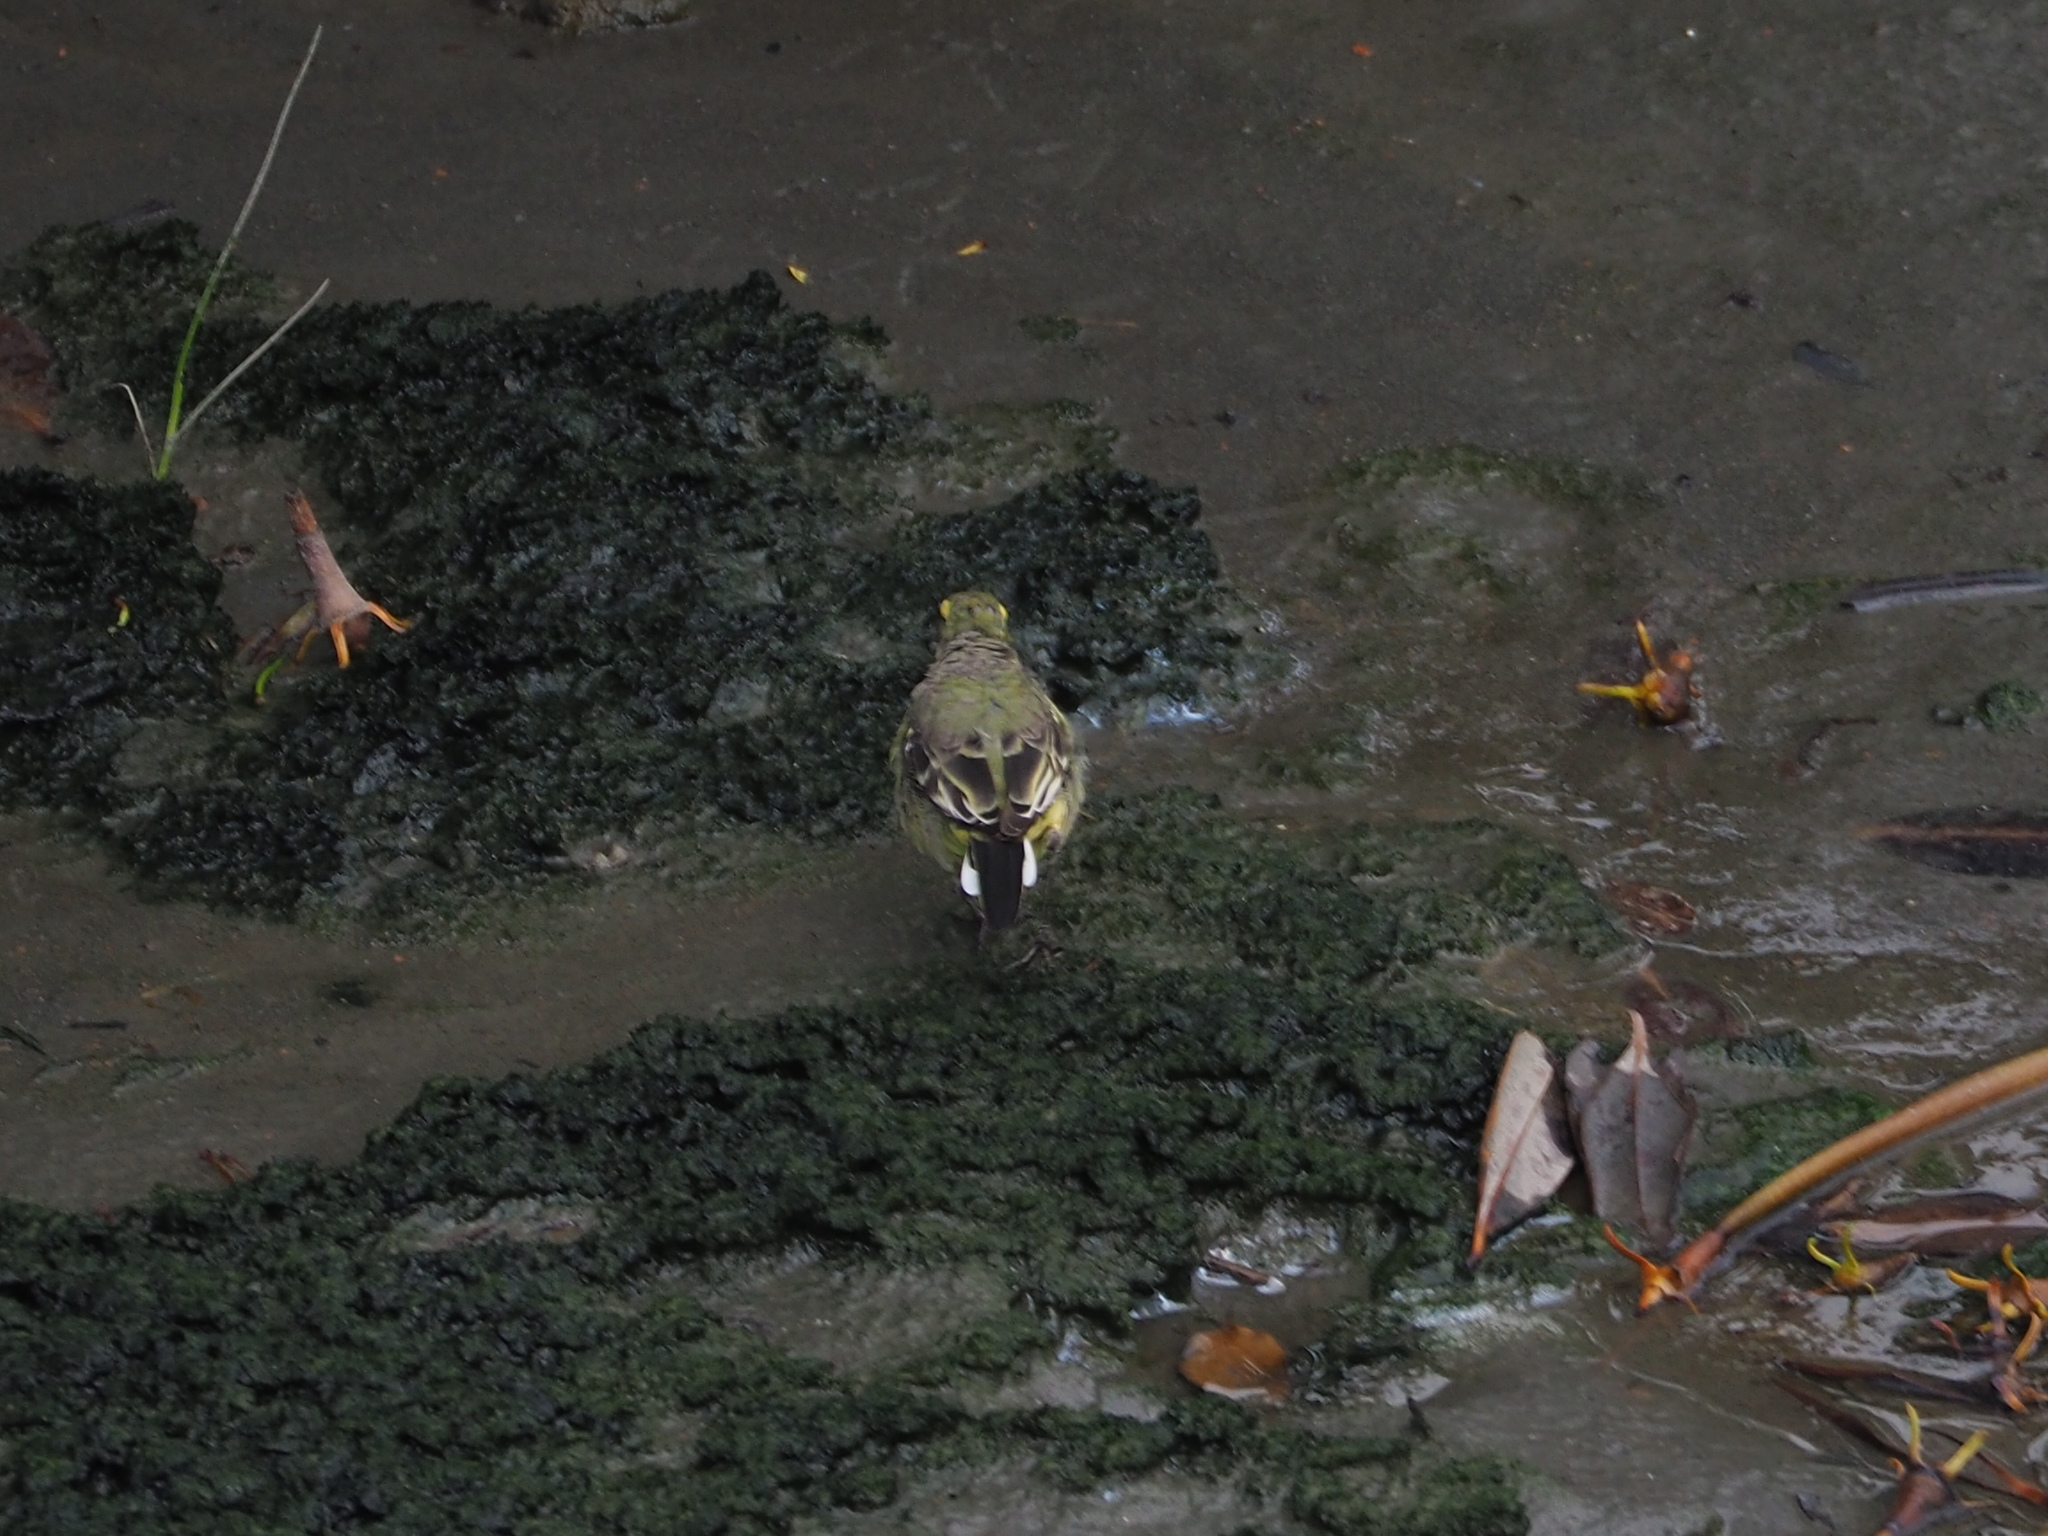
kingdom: Animalia
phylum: Chordata
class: Aves
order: Passeriformes
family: Motacillidae
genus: Motacilla
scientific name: Motacilla tschutschensis
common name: Eastern yellow wagtail
